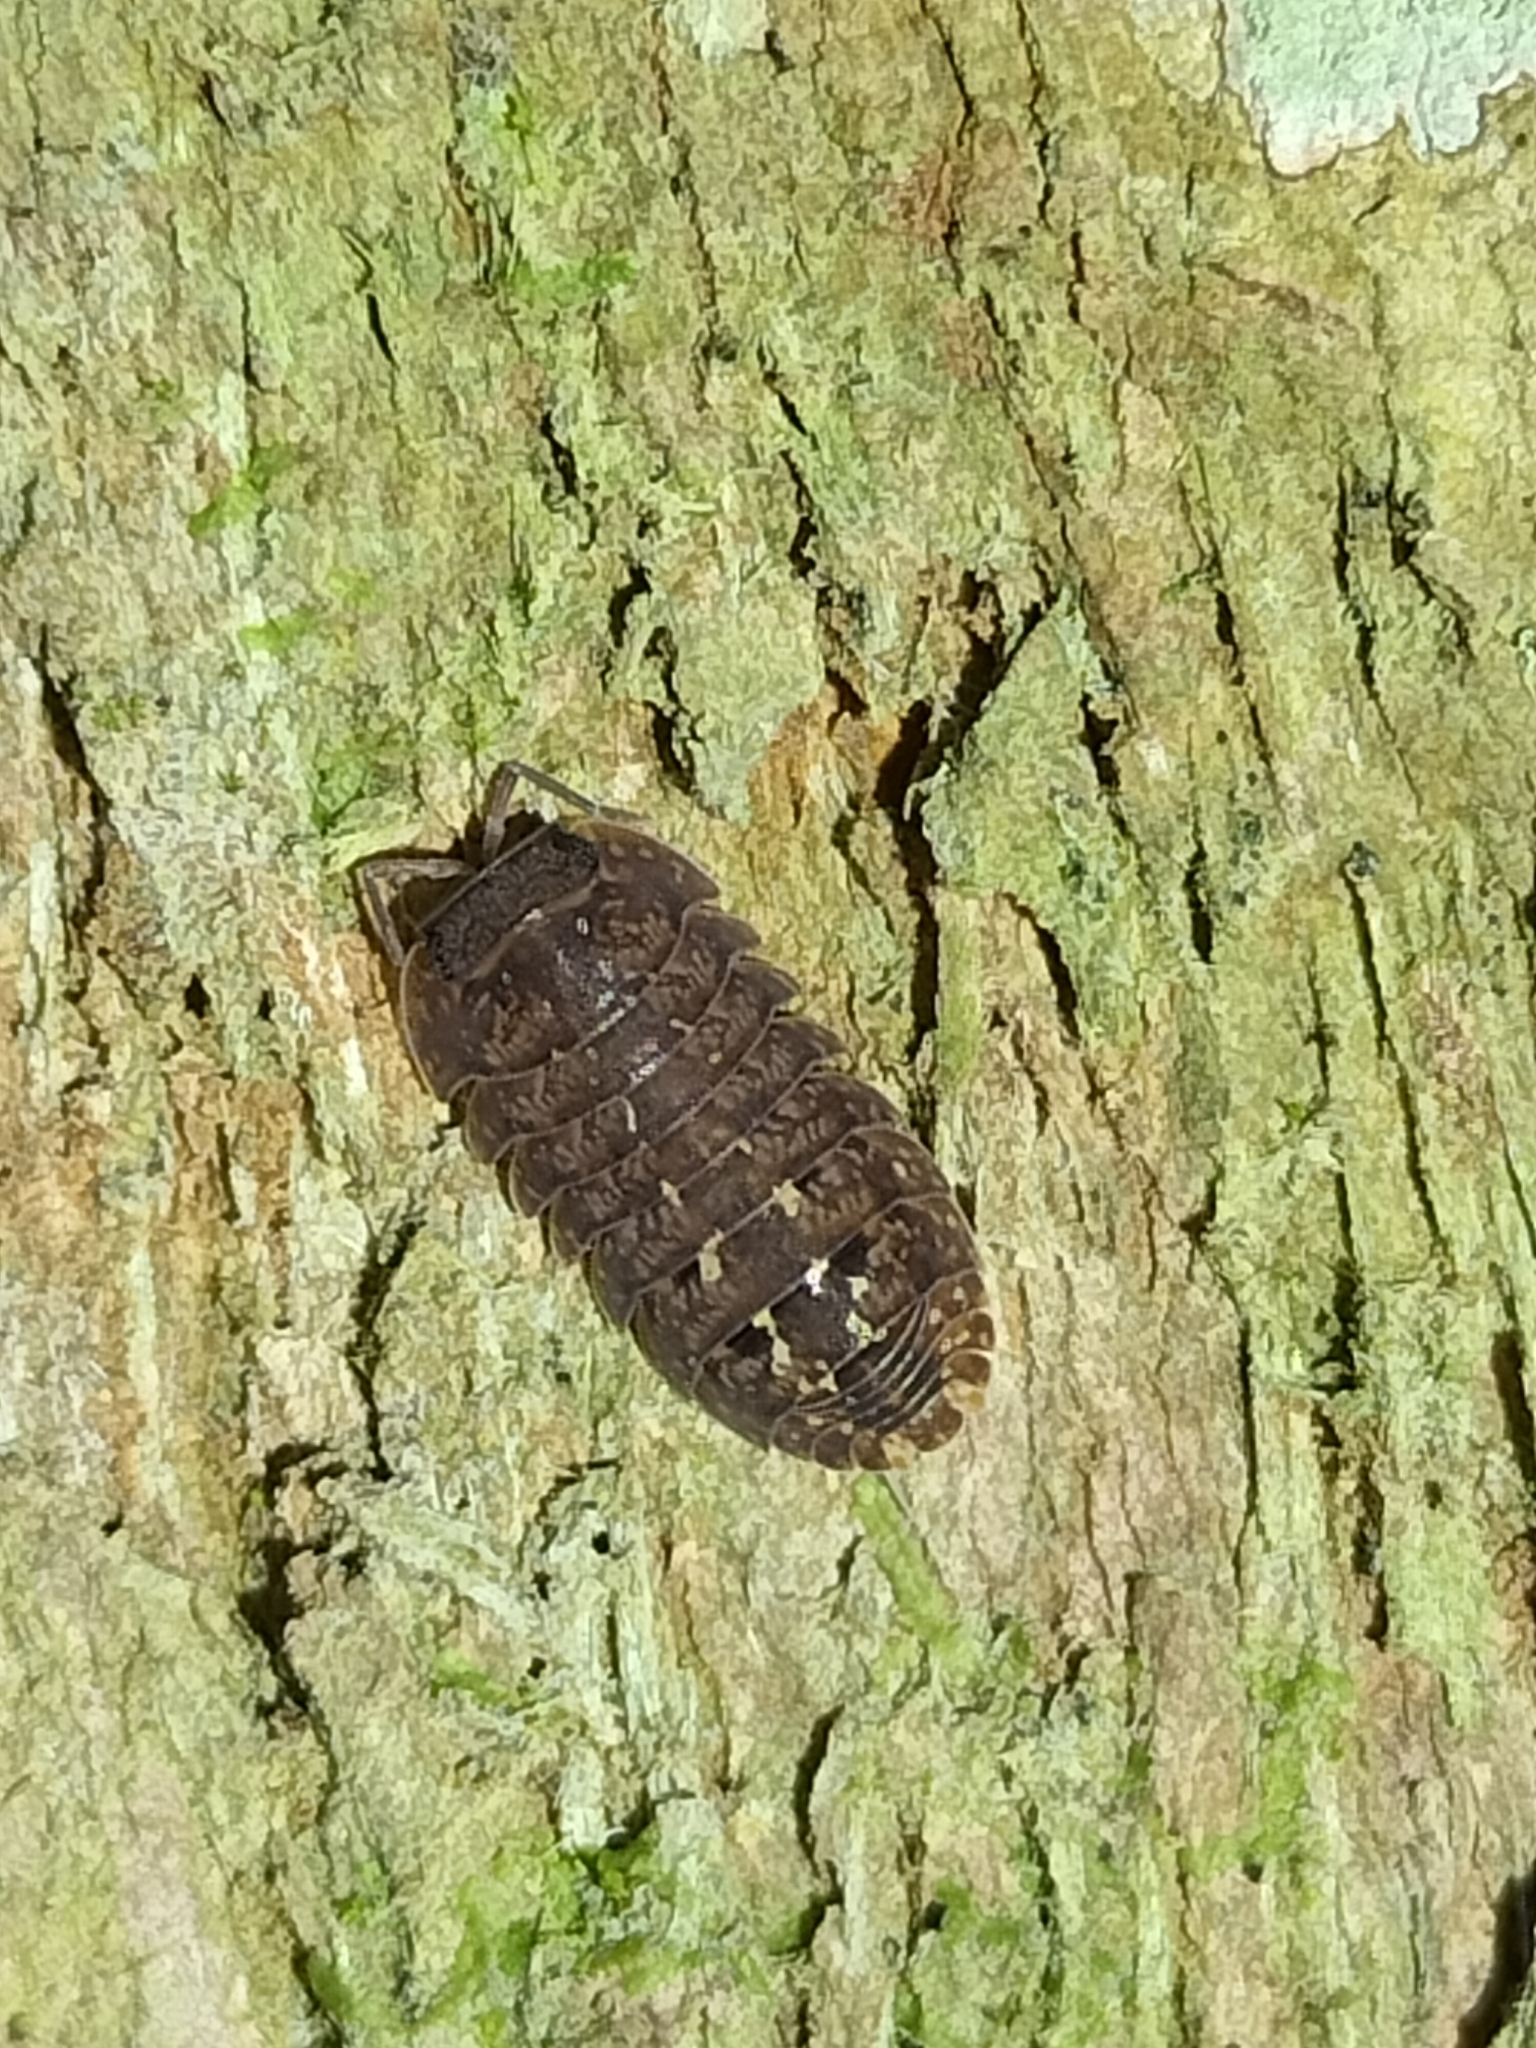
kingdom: Animalia
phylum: Arthropoda
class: Malacostraca
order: Isopoda
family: Armadillidae
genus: Cubaris
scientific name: Cubaris marmorata
